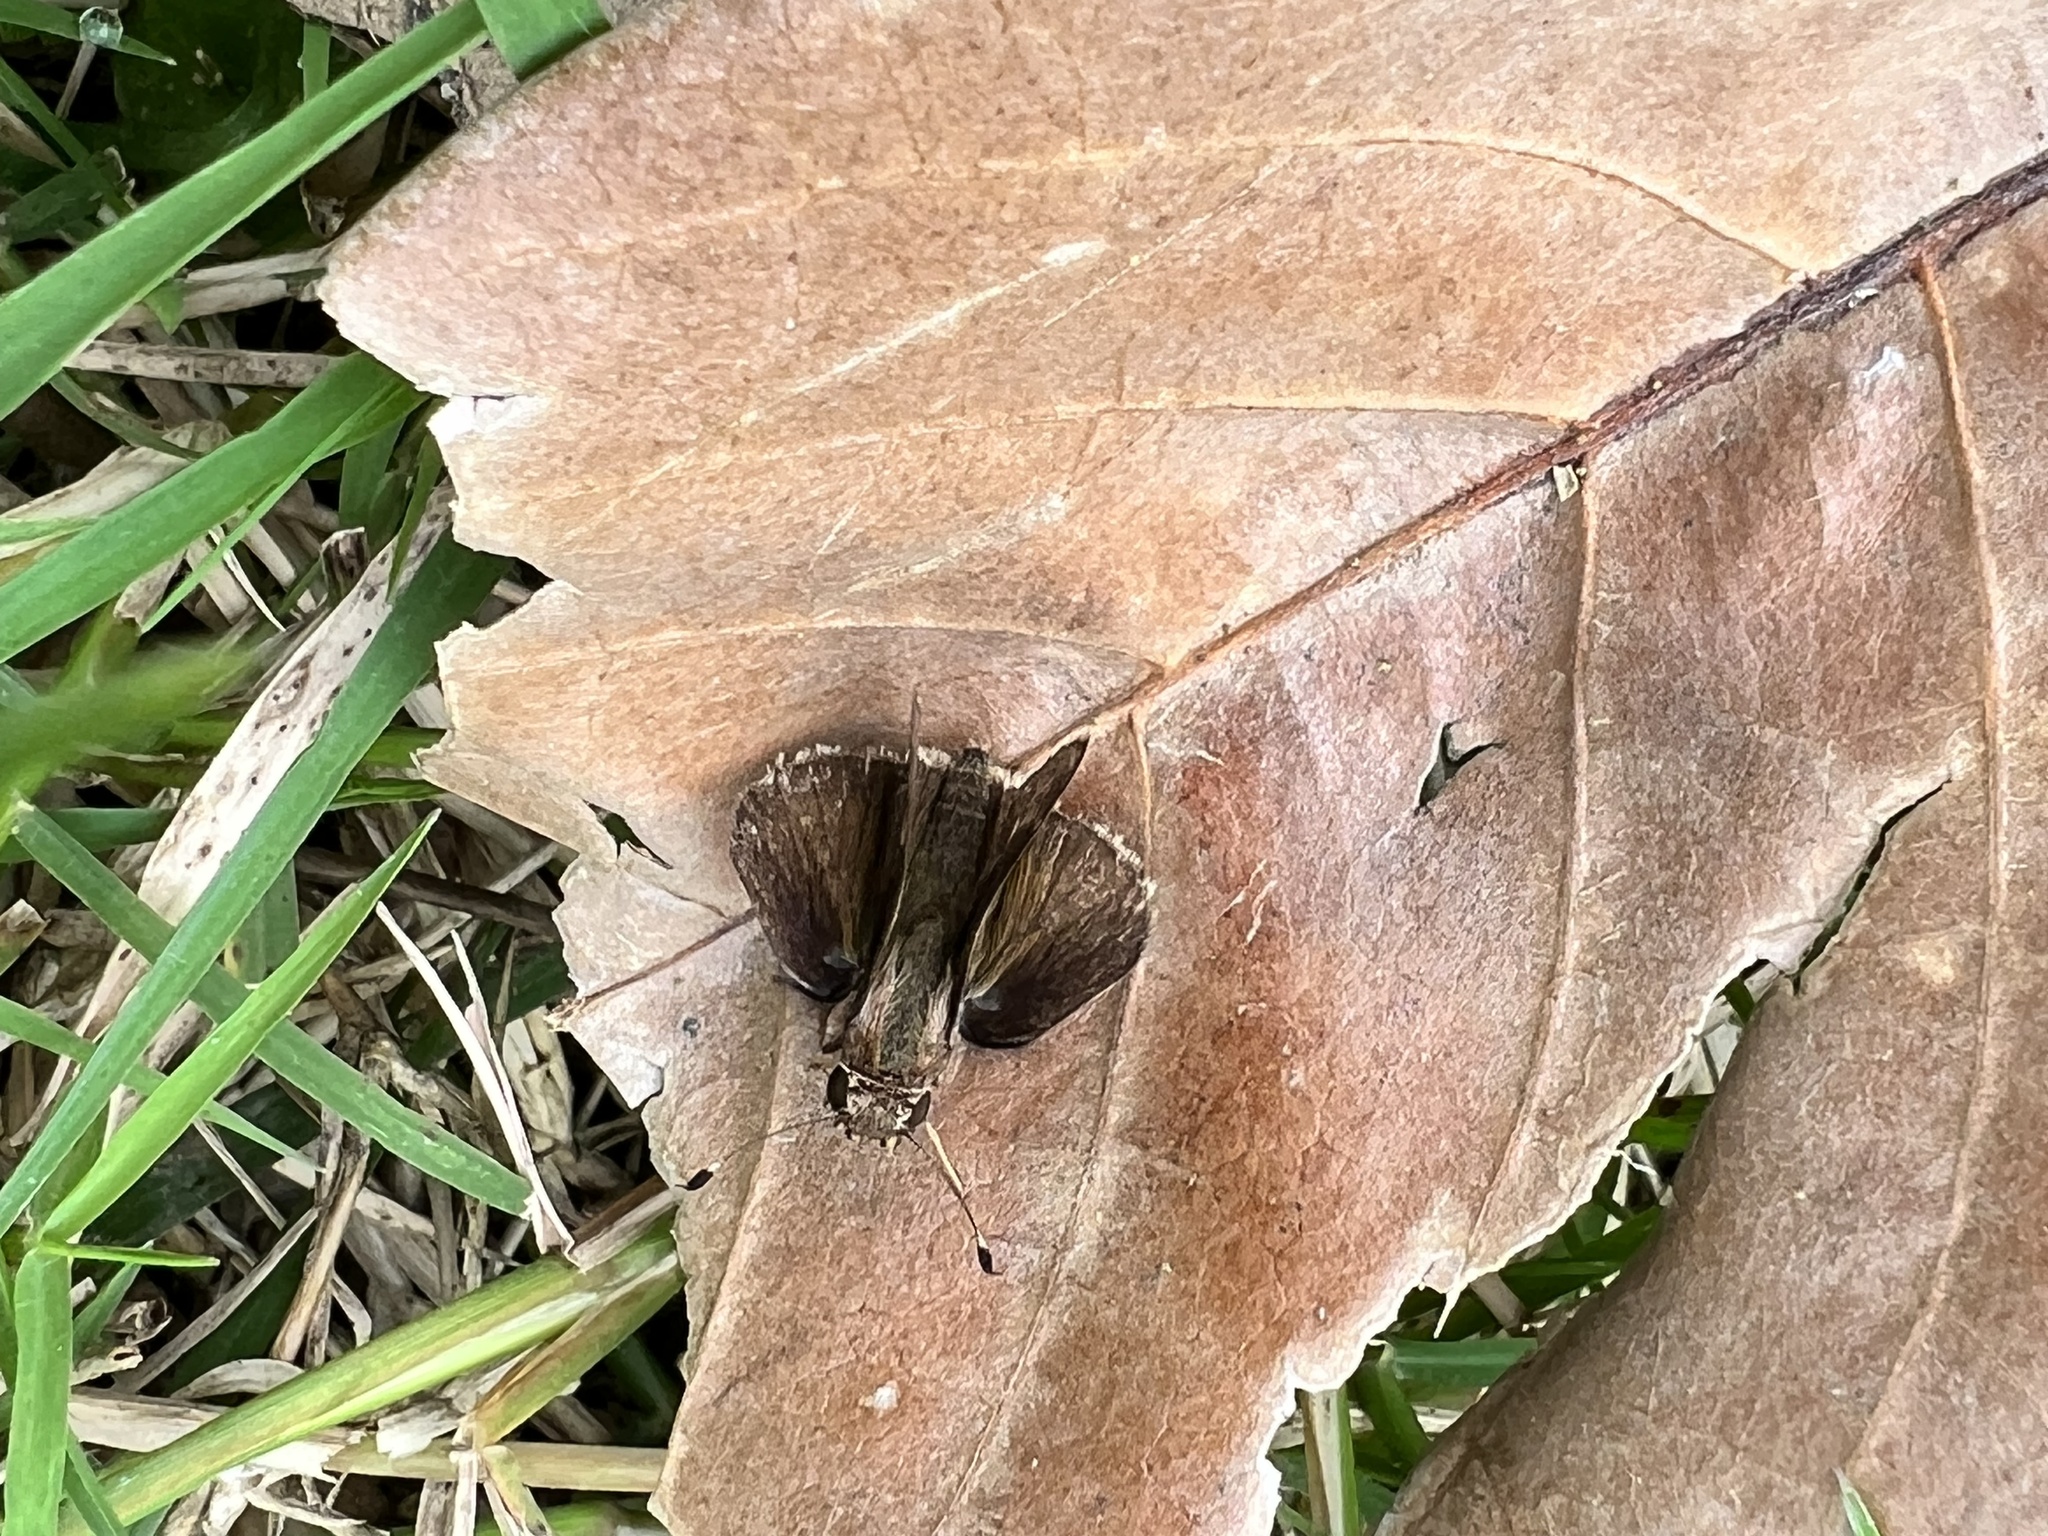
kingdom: Animalia
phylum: Arthropoda
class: Insecta
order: Lepidoptera
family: Hesperiidae
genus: Pompeius
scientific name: Pompeius pompeius
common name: Pompeius skipper
